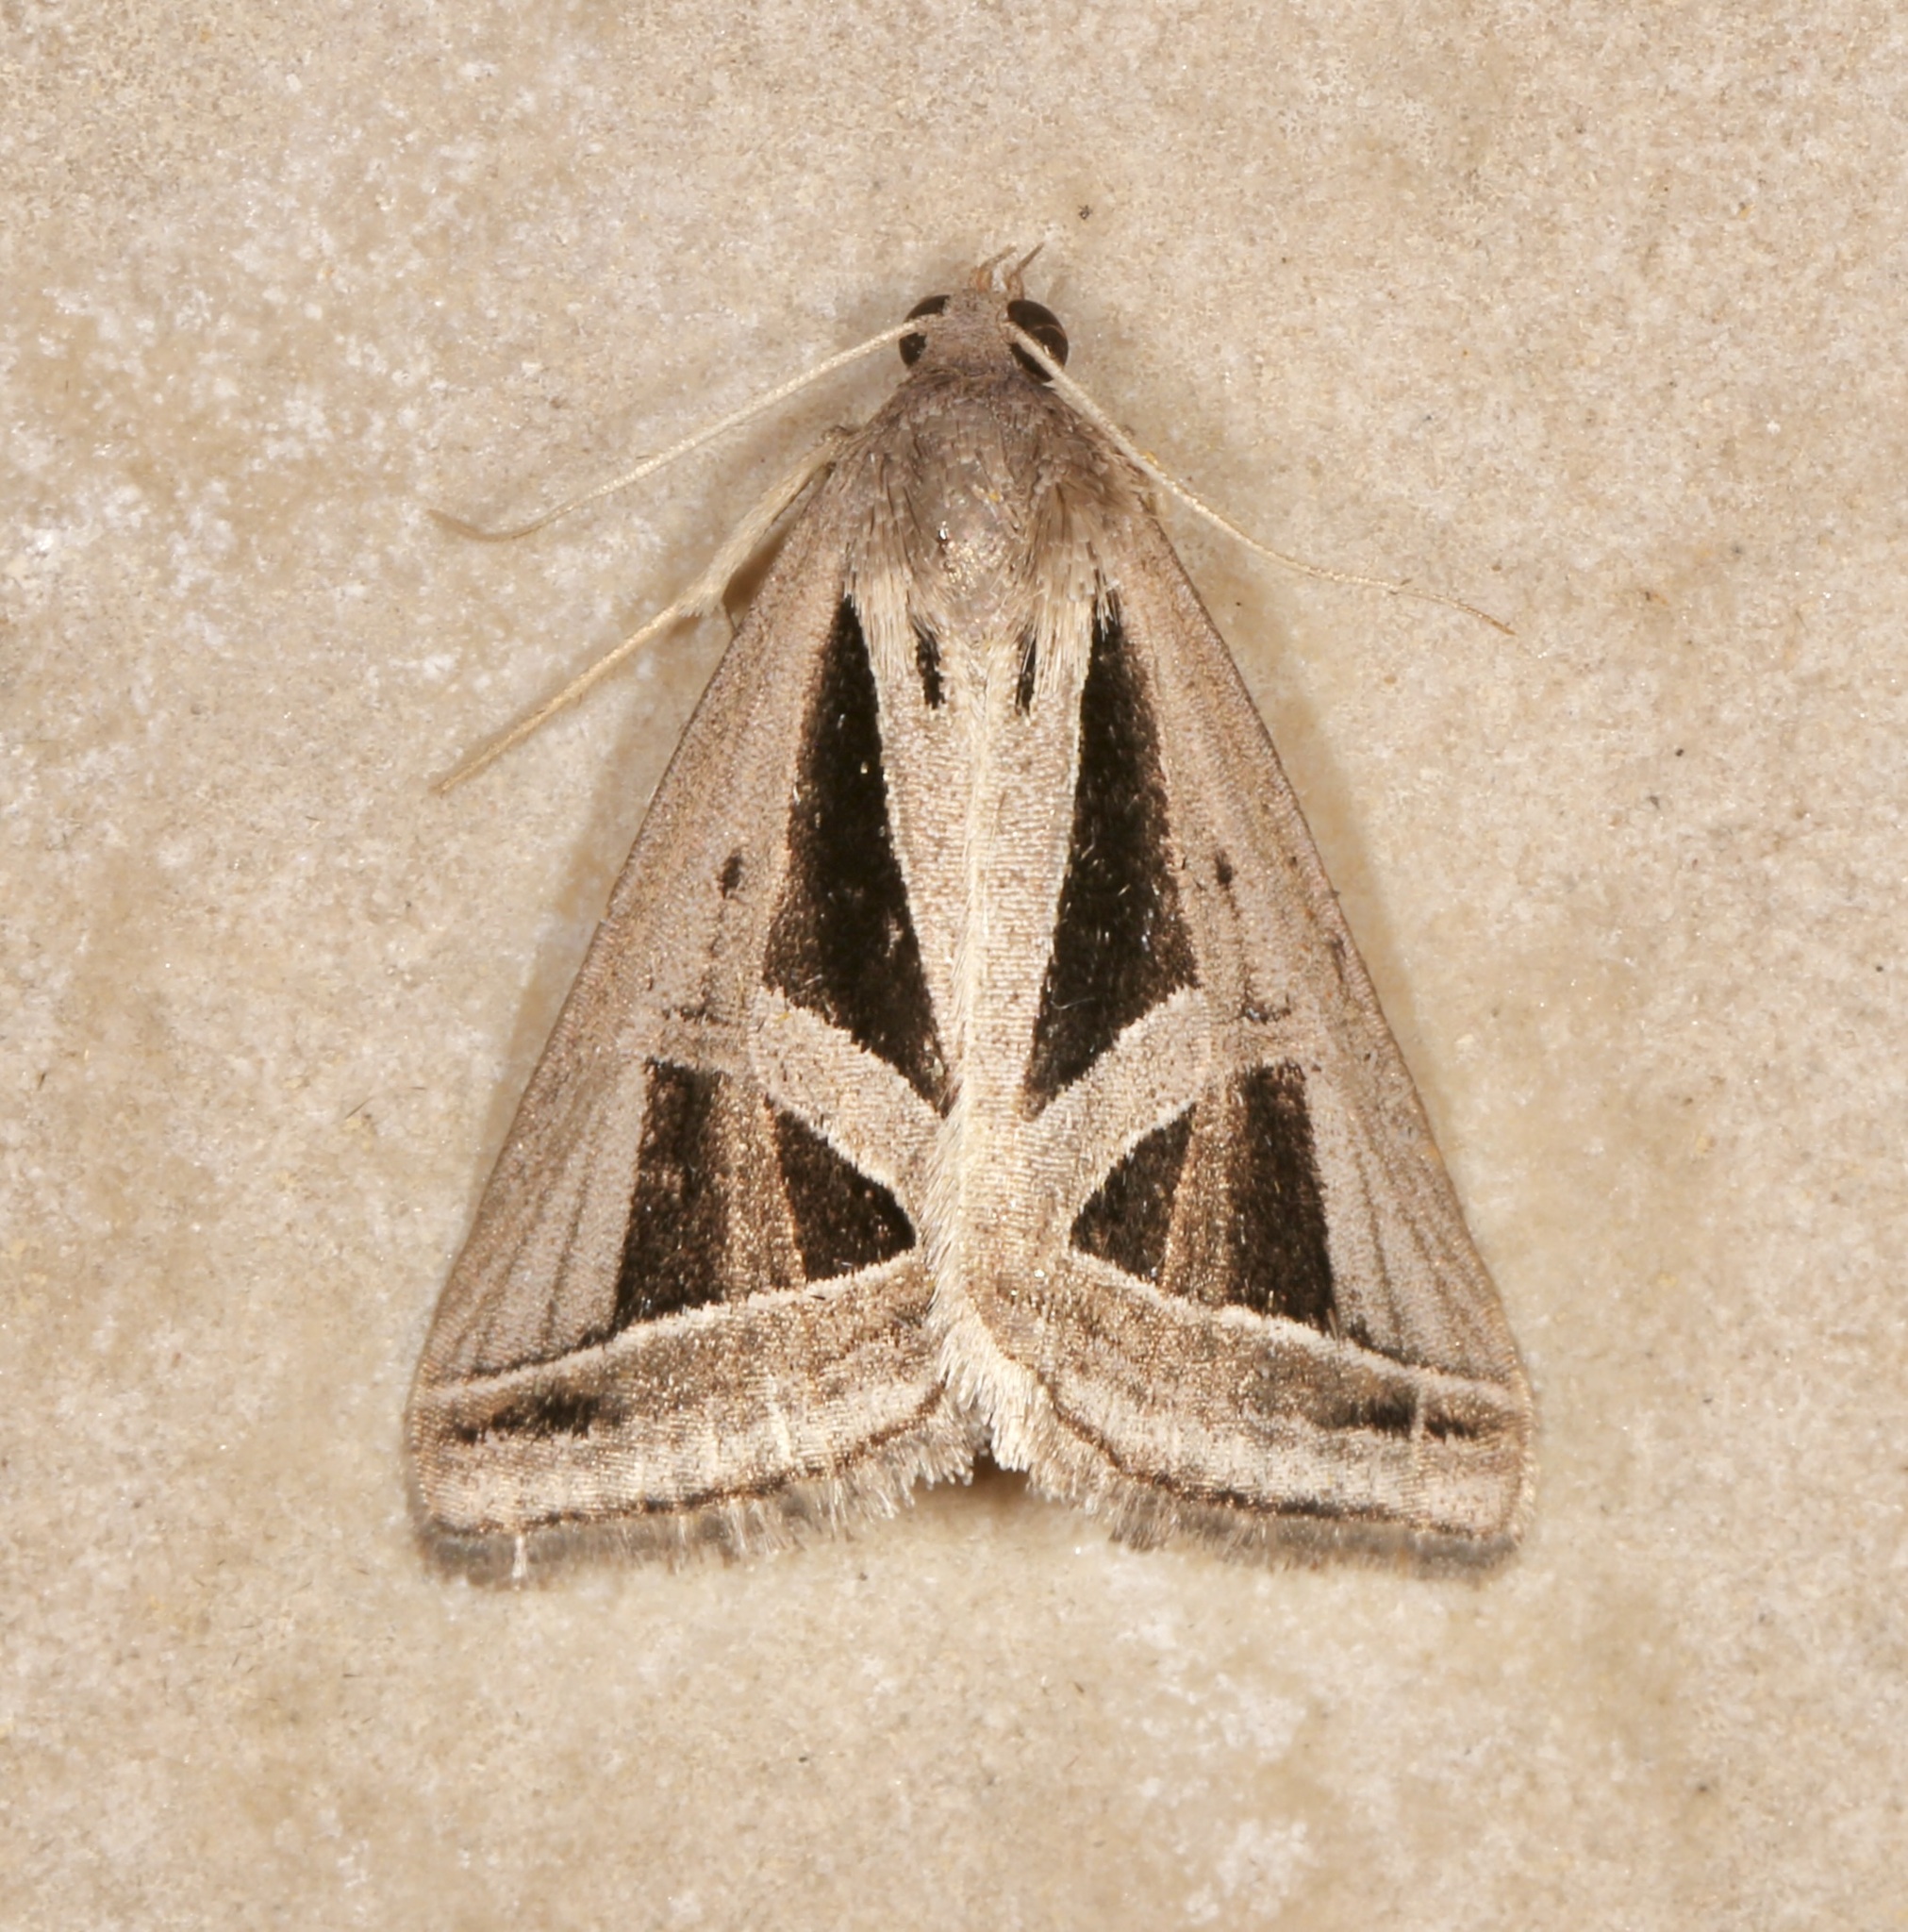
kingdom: Animalia
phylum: Arthropoda
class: Insecta
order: Lepidoptera
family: Erebidae
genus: Callistege
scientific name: Callistege triangula
